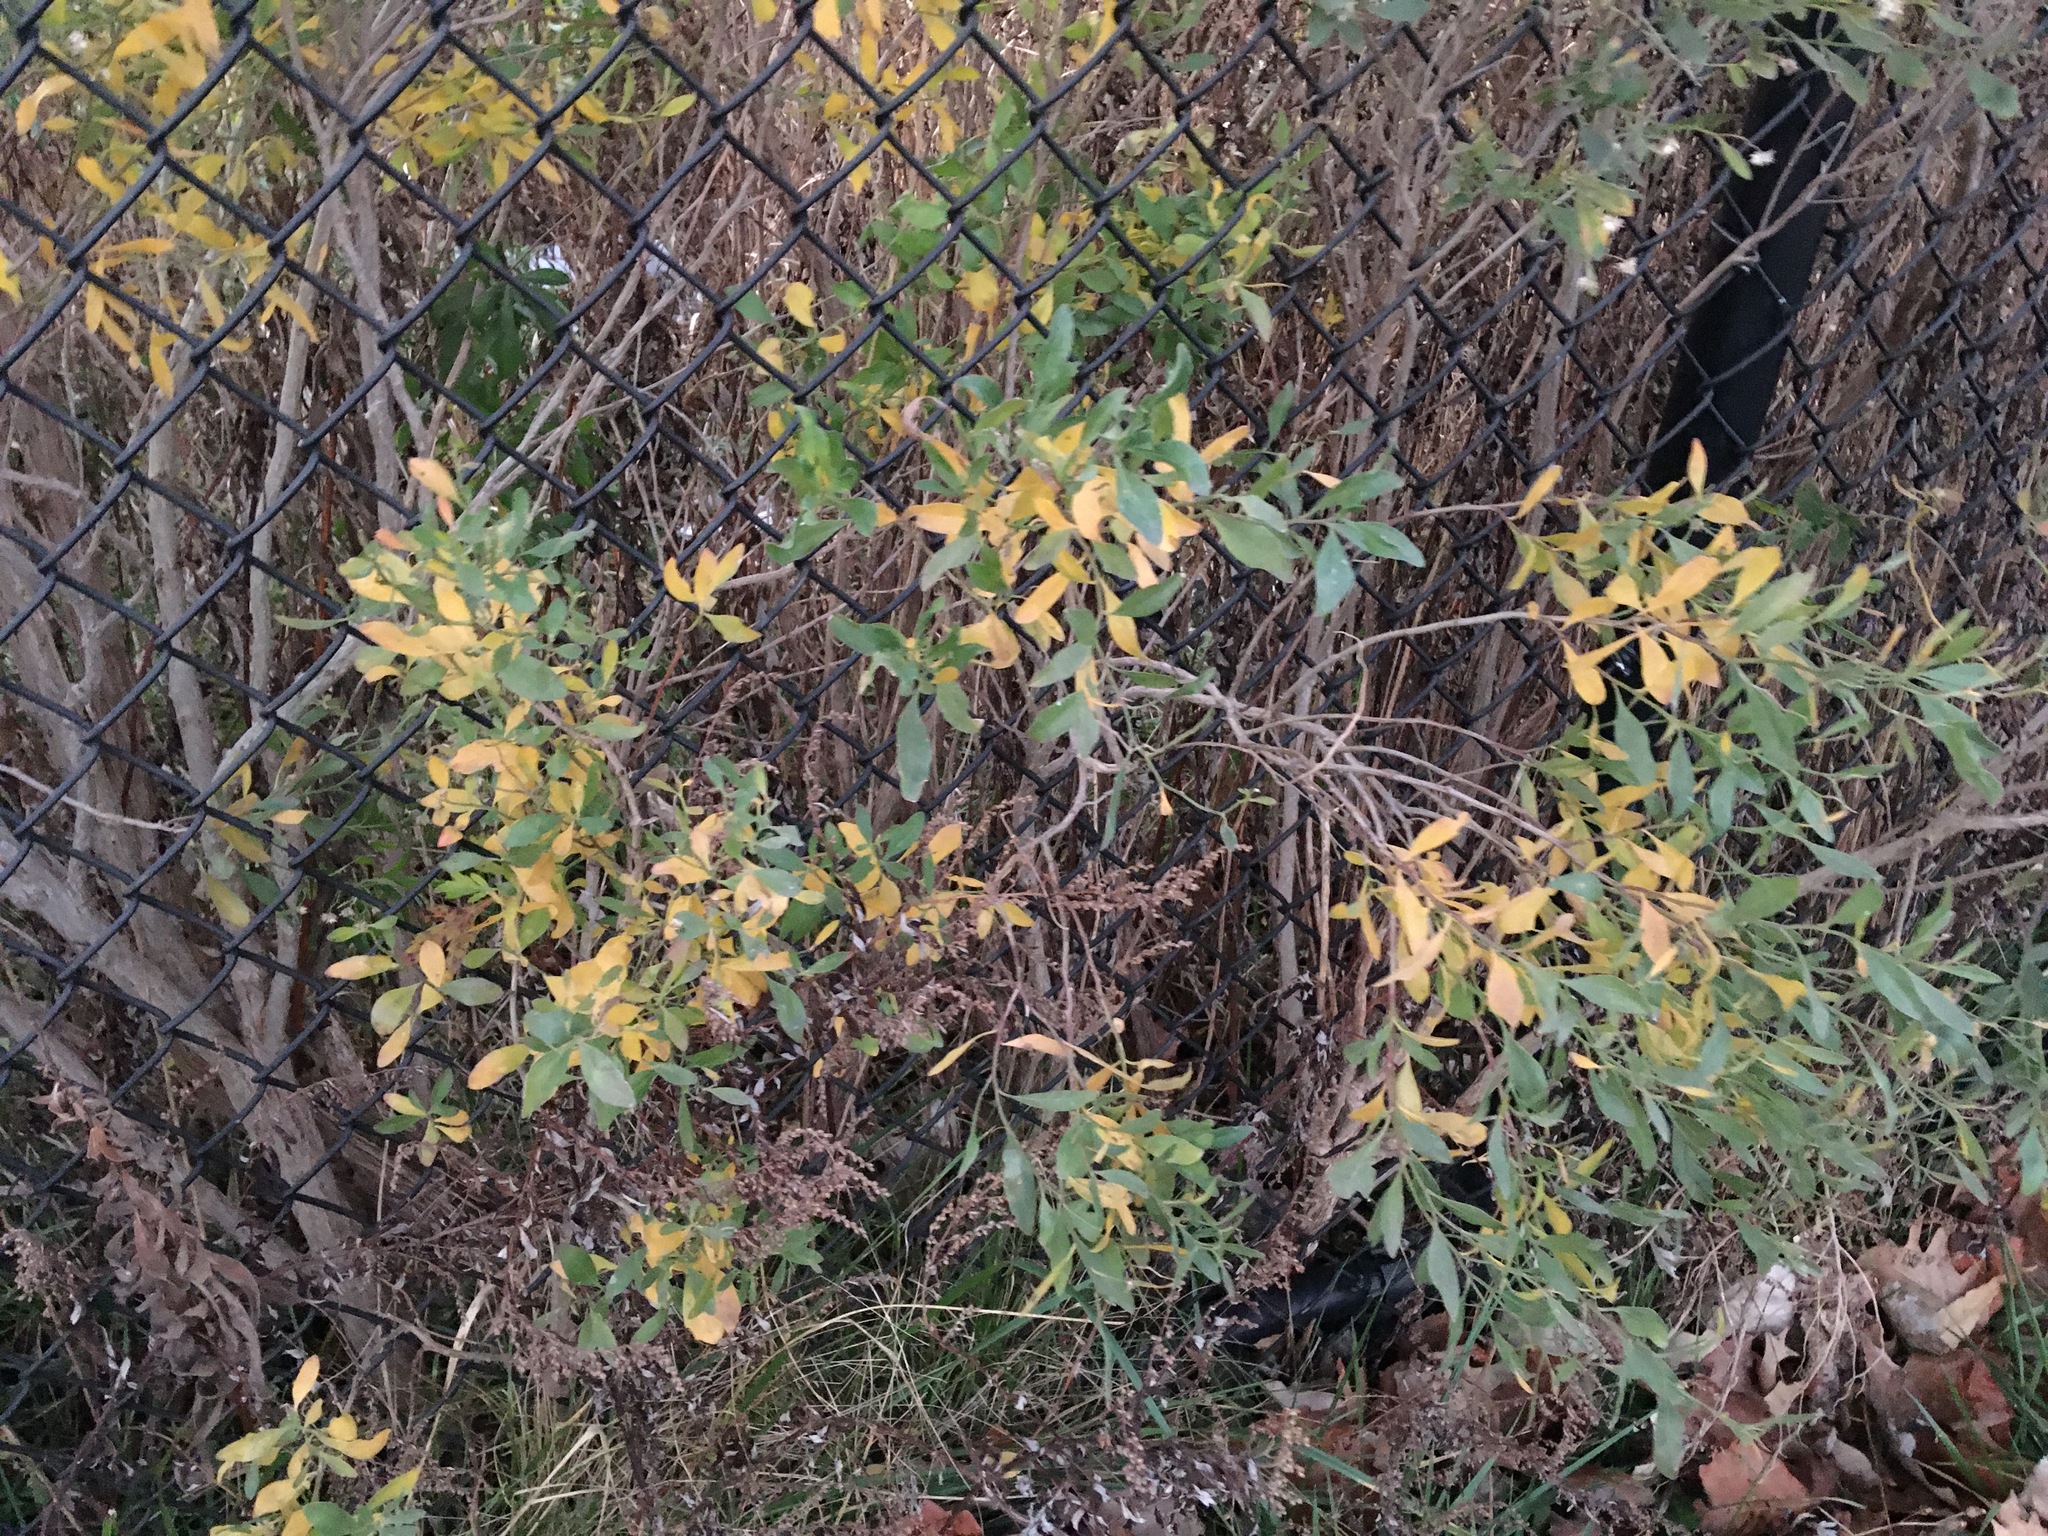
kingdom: Plantae
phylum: Tracheophyta
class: Magnoliopsida
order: Asterales
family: Asteraceae
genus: Baccharis
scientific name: Baccharis halimifolia
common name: Eastern baccharis
